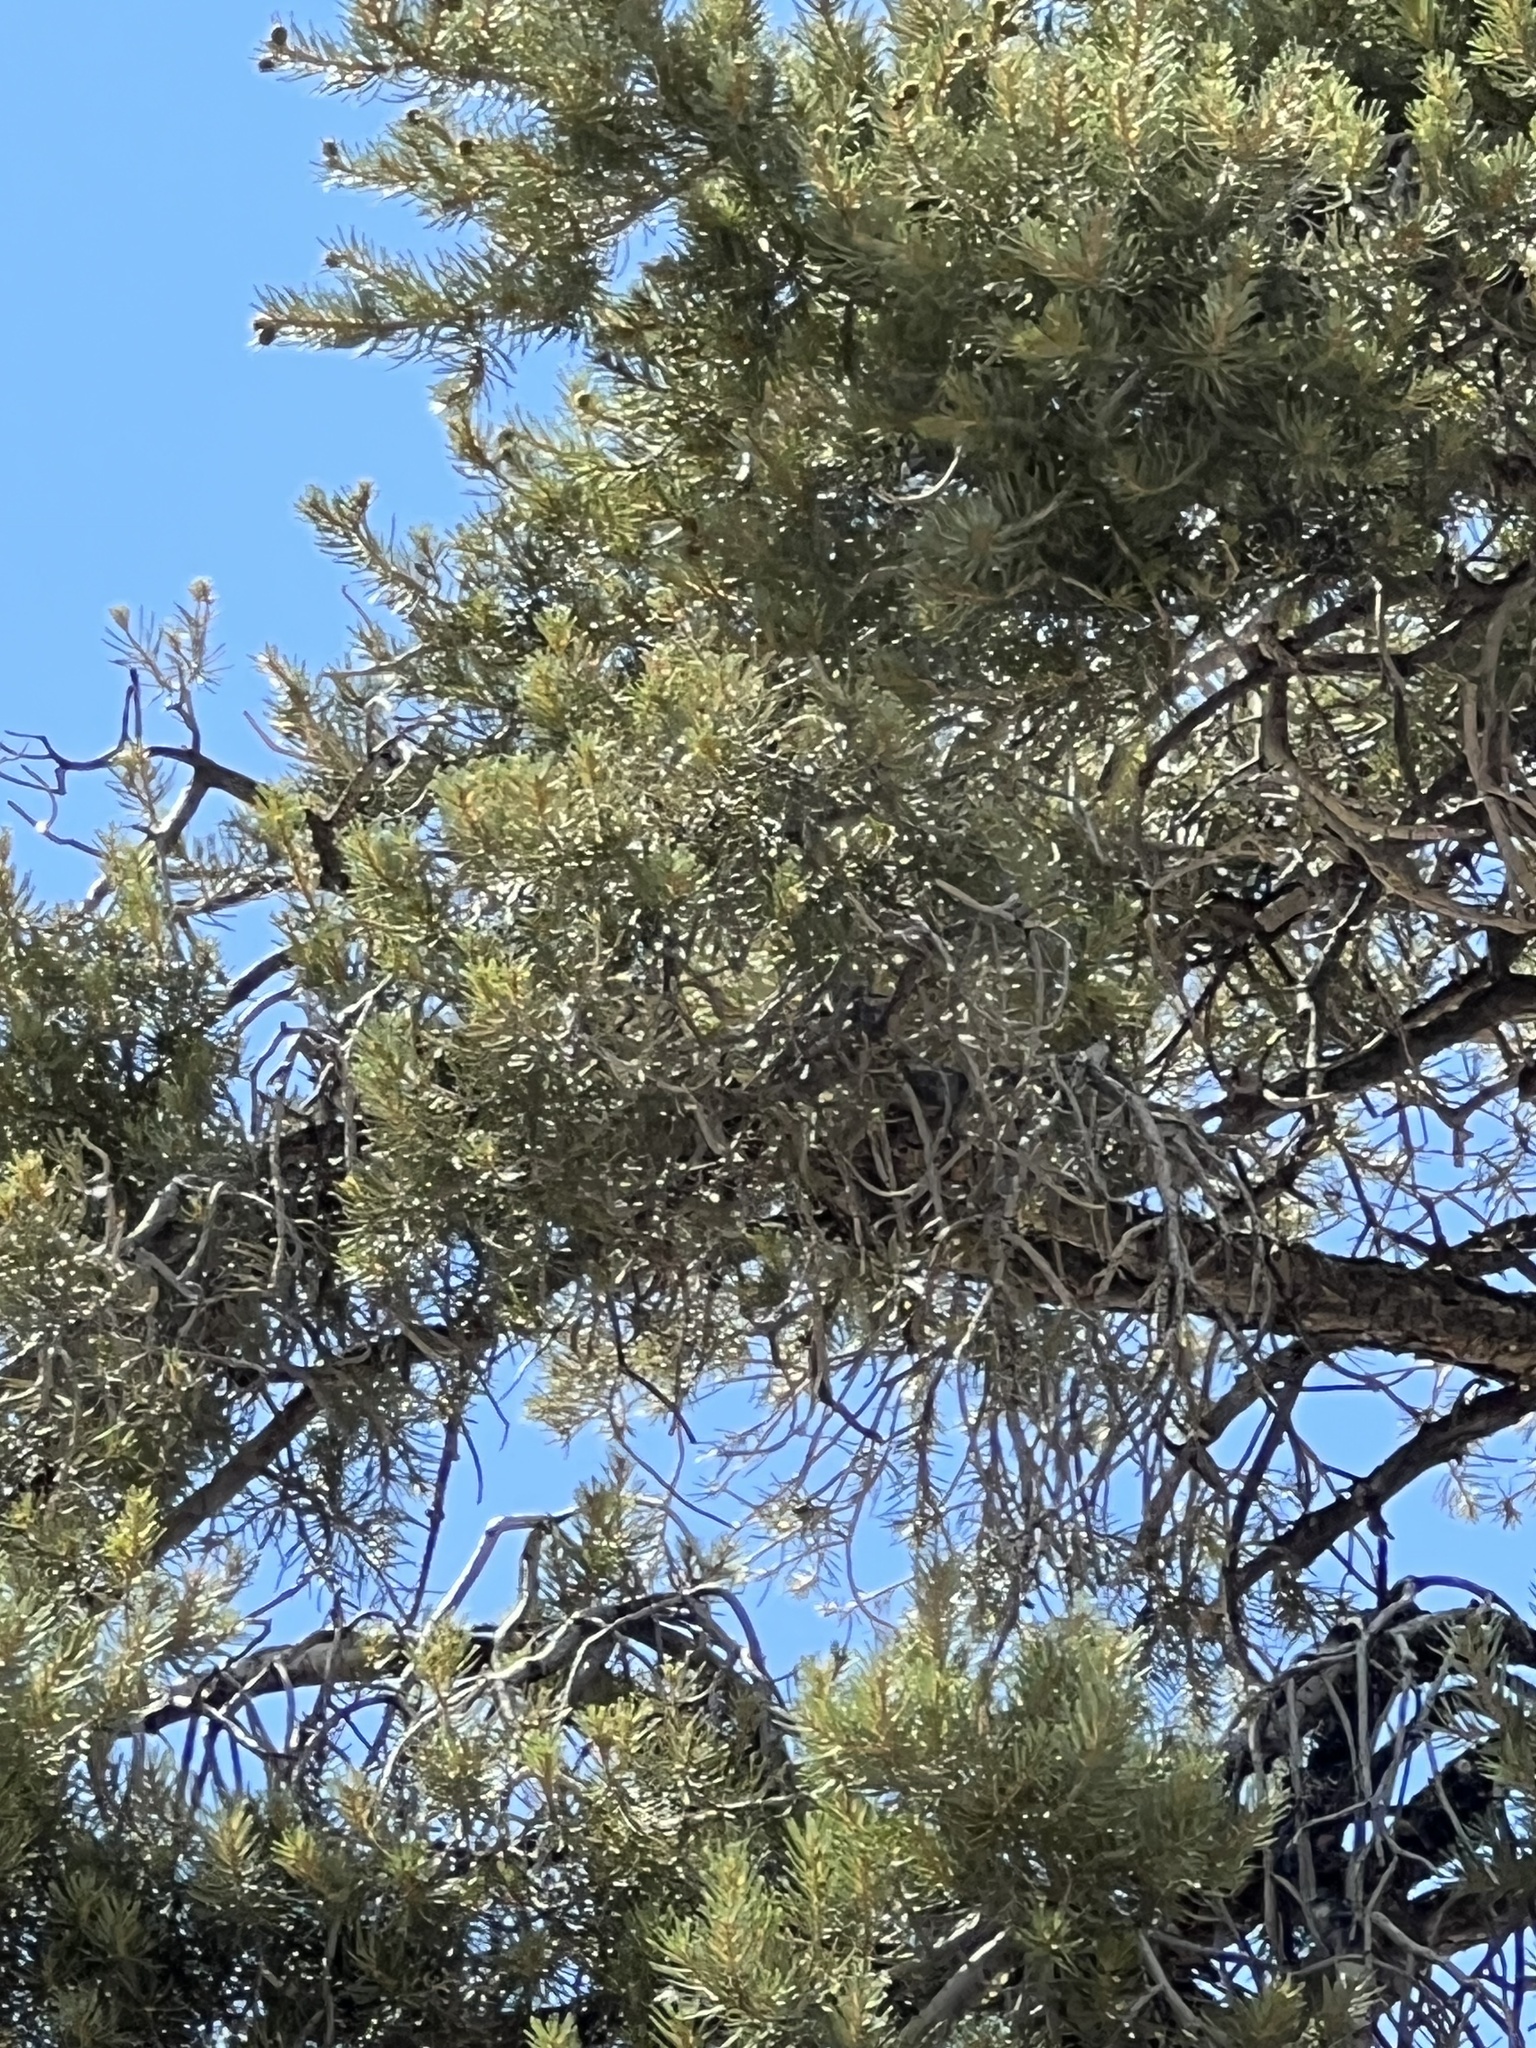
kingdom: Plantae
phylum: Tracheophyta
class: Pinopsida
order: Pinales
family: Pinaceae
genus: Pinus
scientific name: Pinus monophylla
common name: One-leaved nut pine
